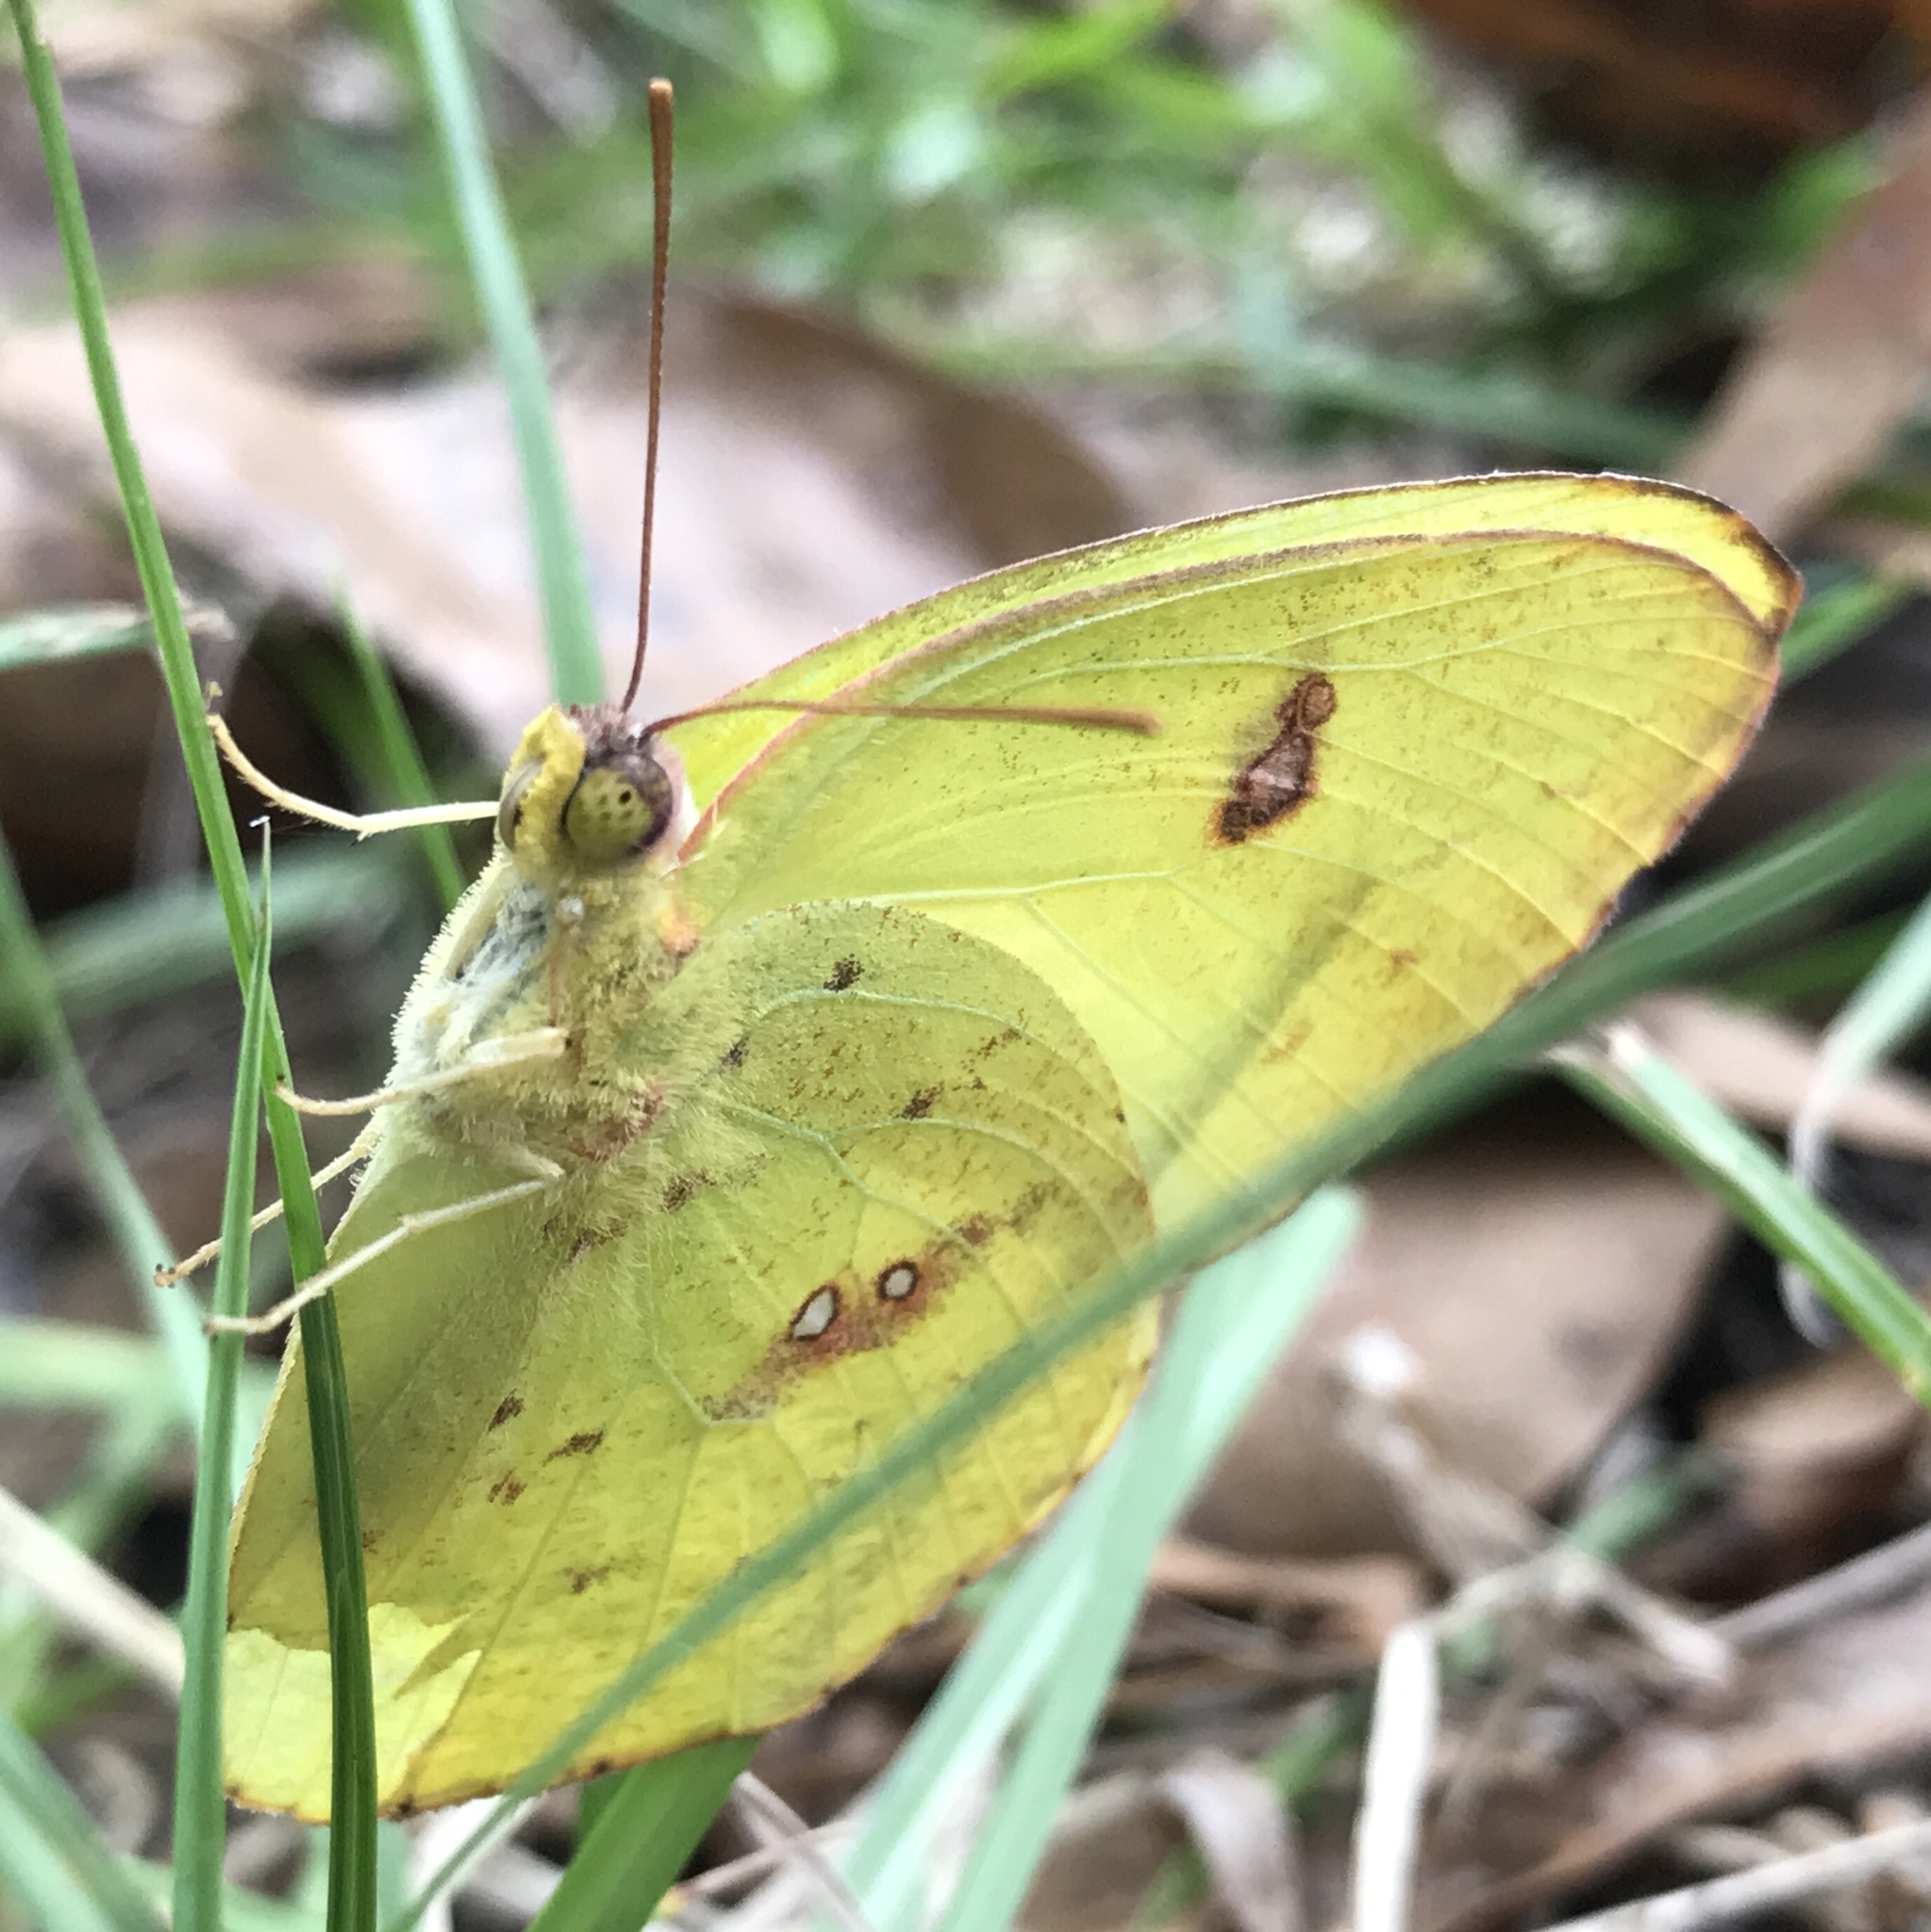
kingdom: Animalia
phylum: Arthropoda
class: Insecta
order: Lepidoptera
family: Pieridae
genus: Phoebis
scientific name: Phoebis sennae
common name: Cloudless sulphur
